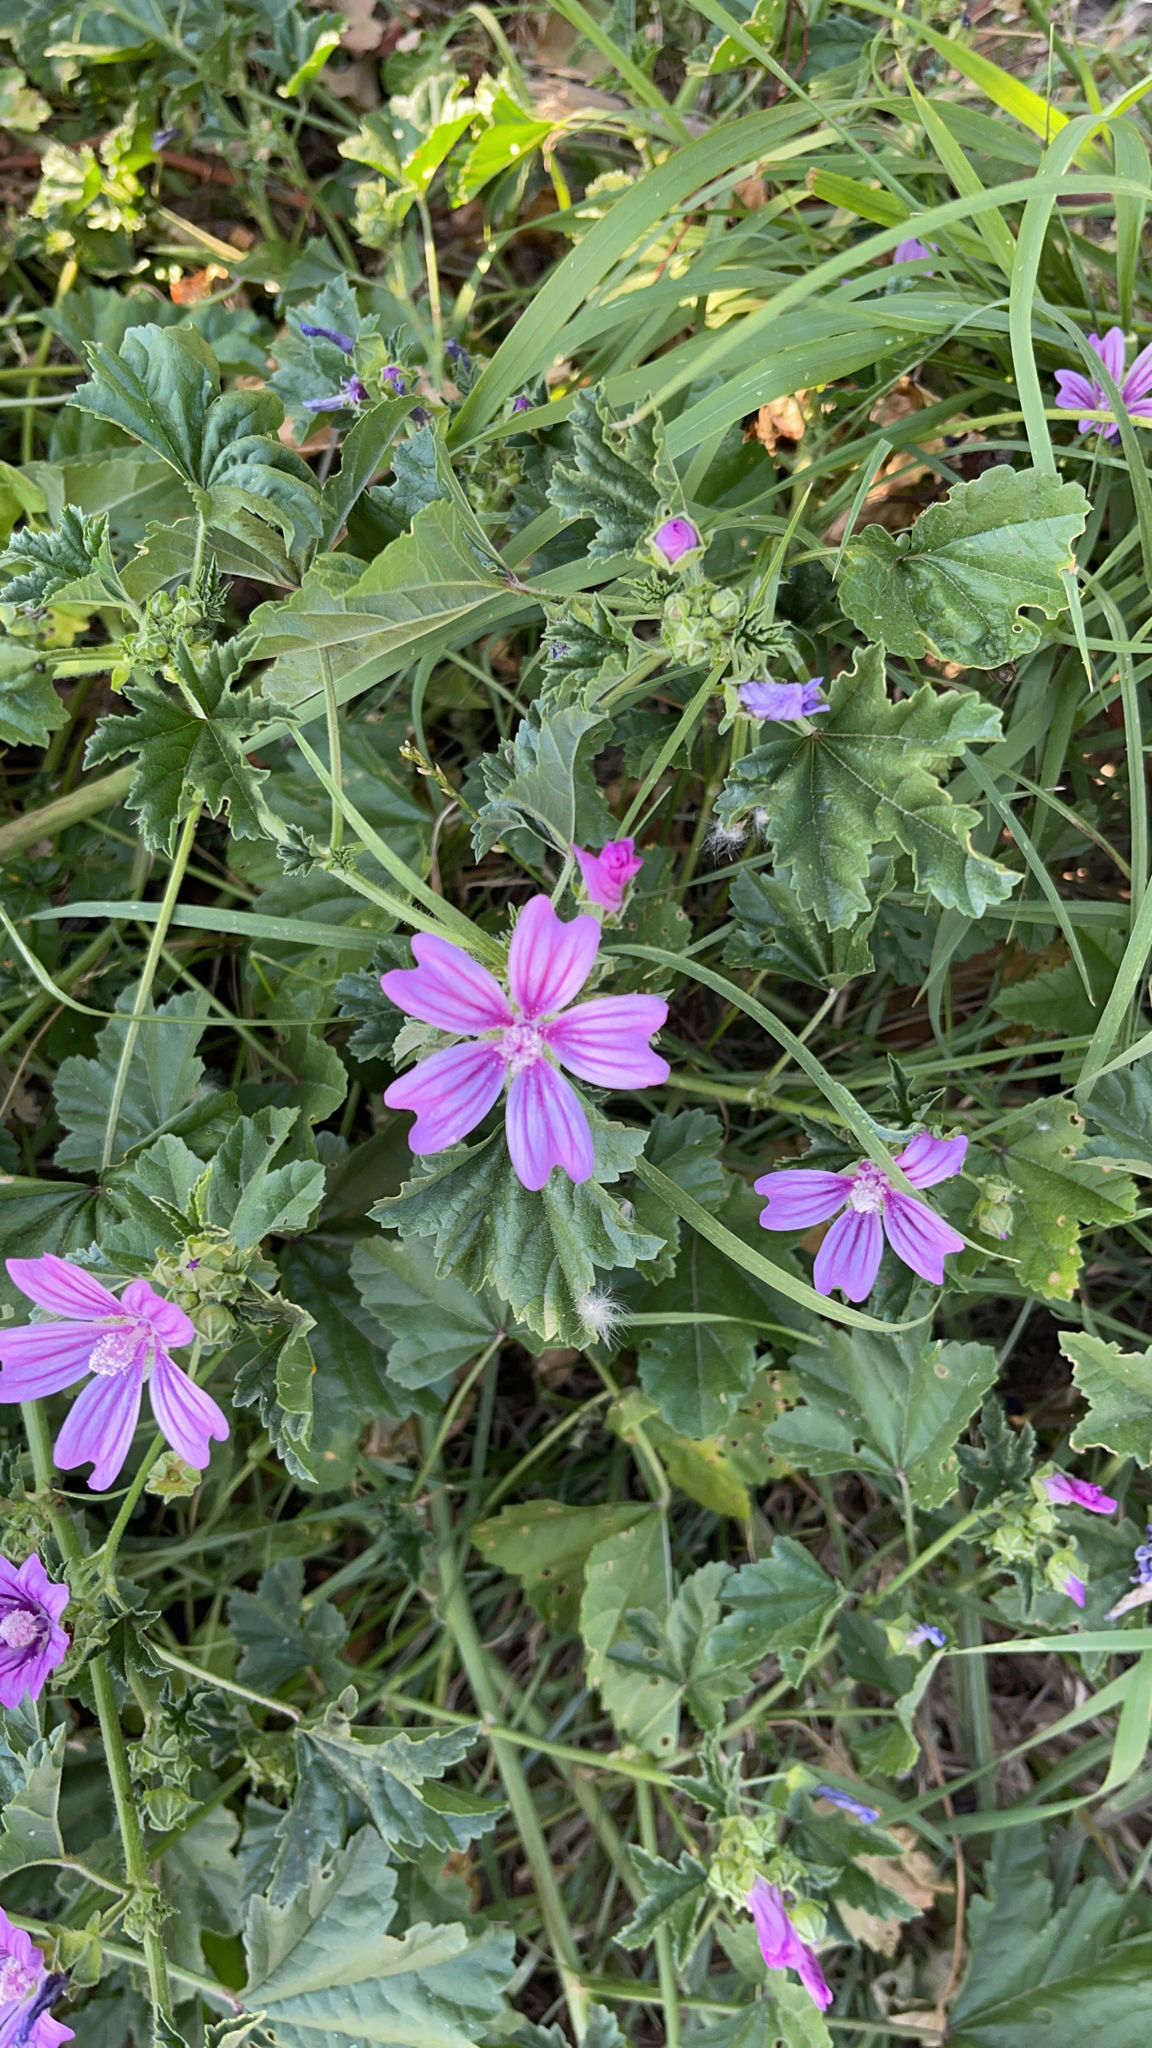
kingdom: Plantae
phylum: Tracheophyta
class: Magnoliopsida
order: Malvales
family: Malvaceae
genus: Malva
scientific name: Malva sylvestris
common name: Common mallow
